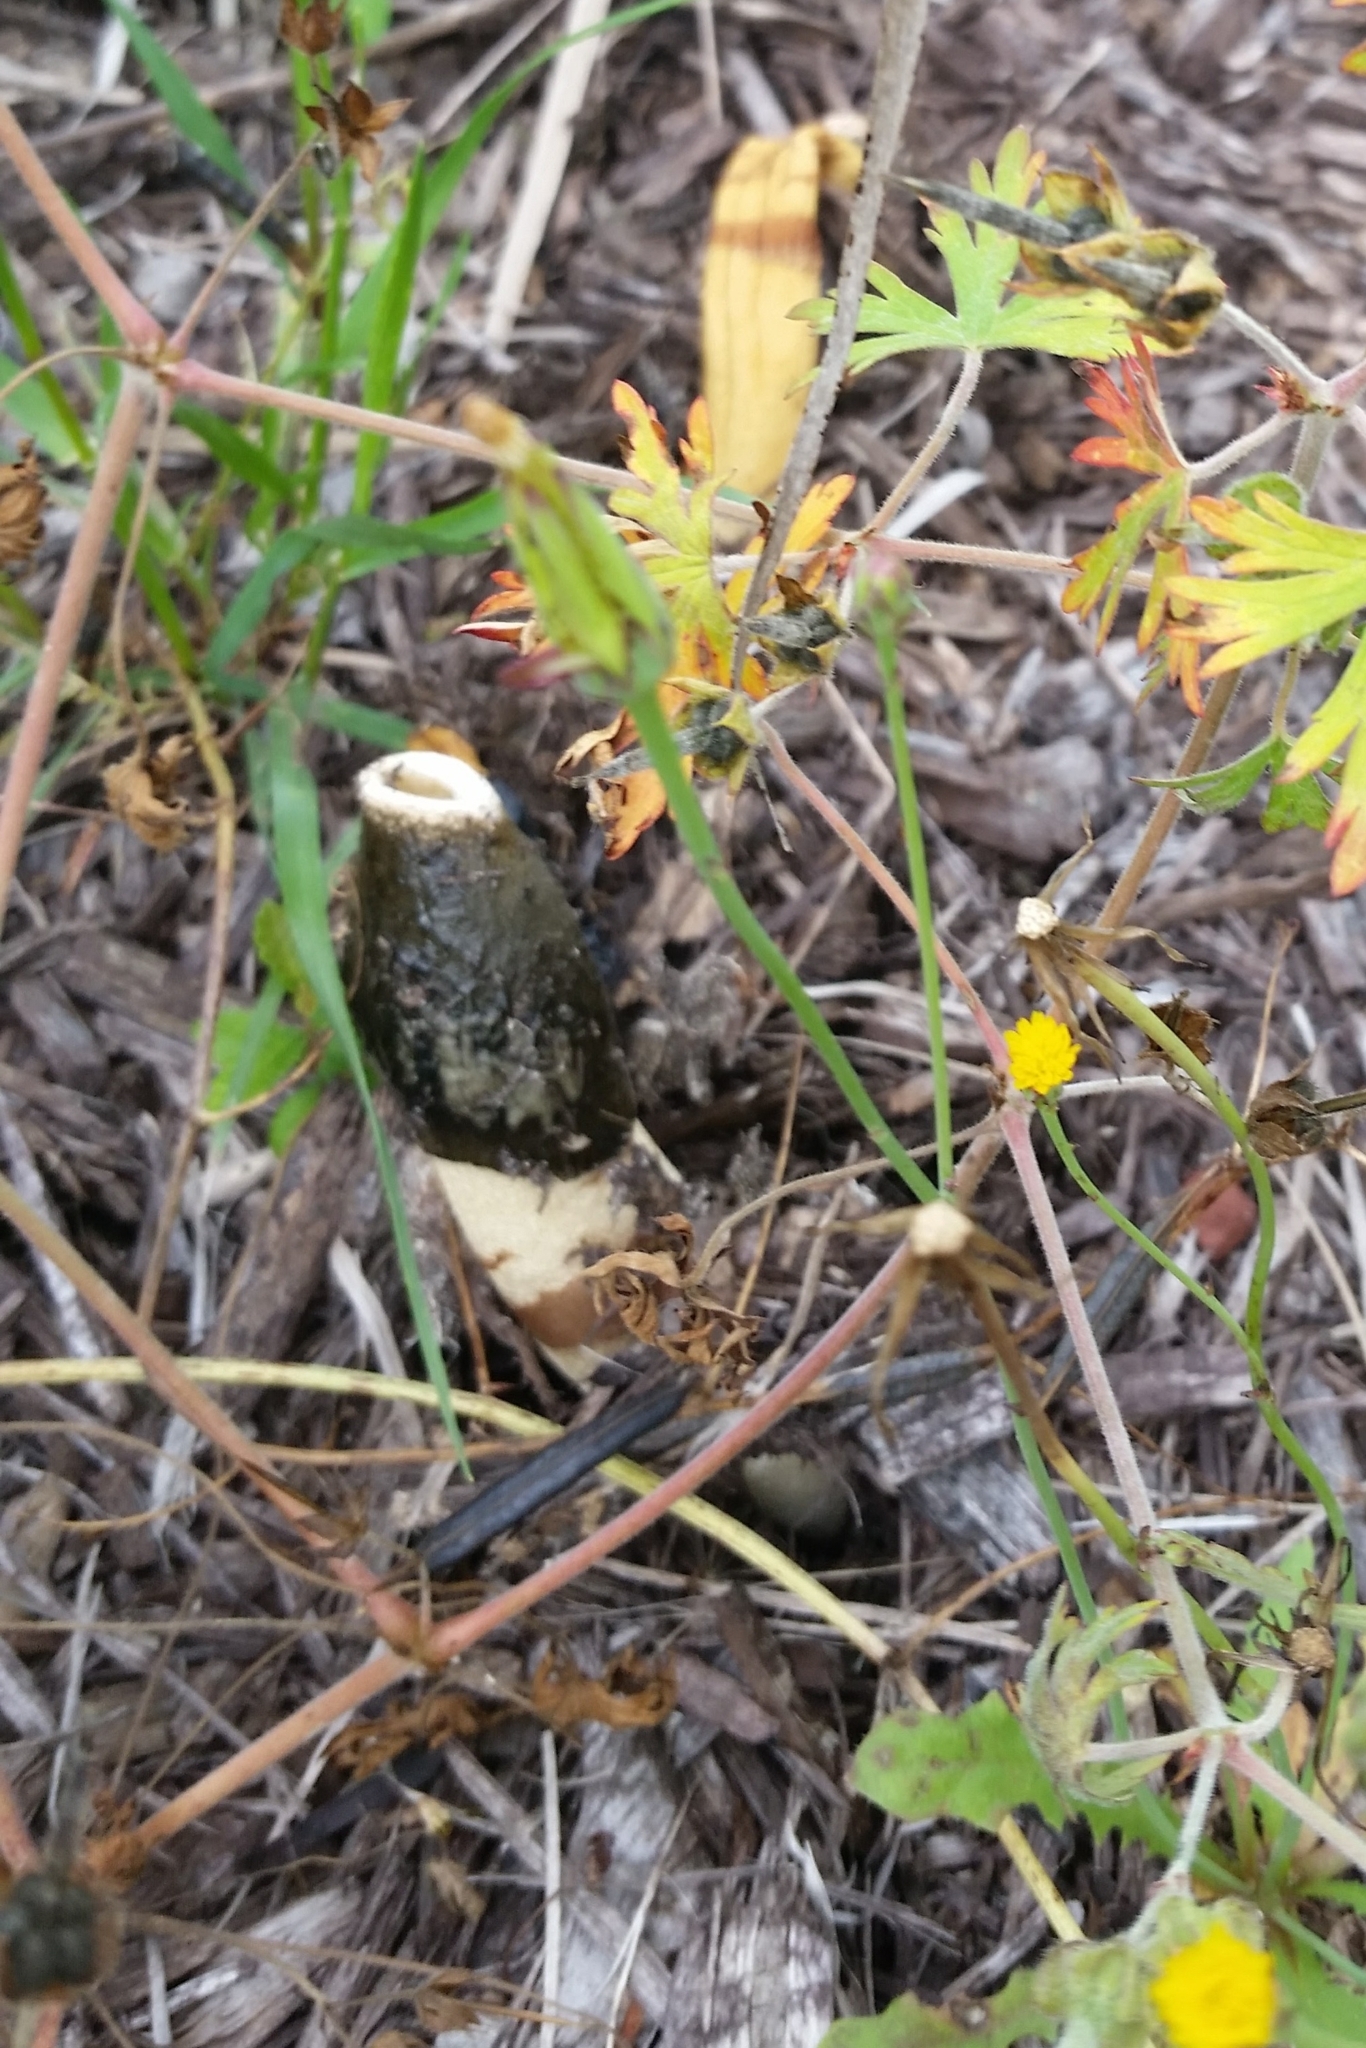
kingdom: Fungi
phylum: Basidiomycota
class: Agaricomycetes
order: Phallales
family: Phallaceae
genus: Phallus
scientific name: Phallus ravenelii
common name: Ravenel's stinkhorn
